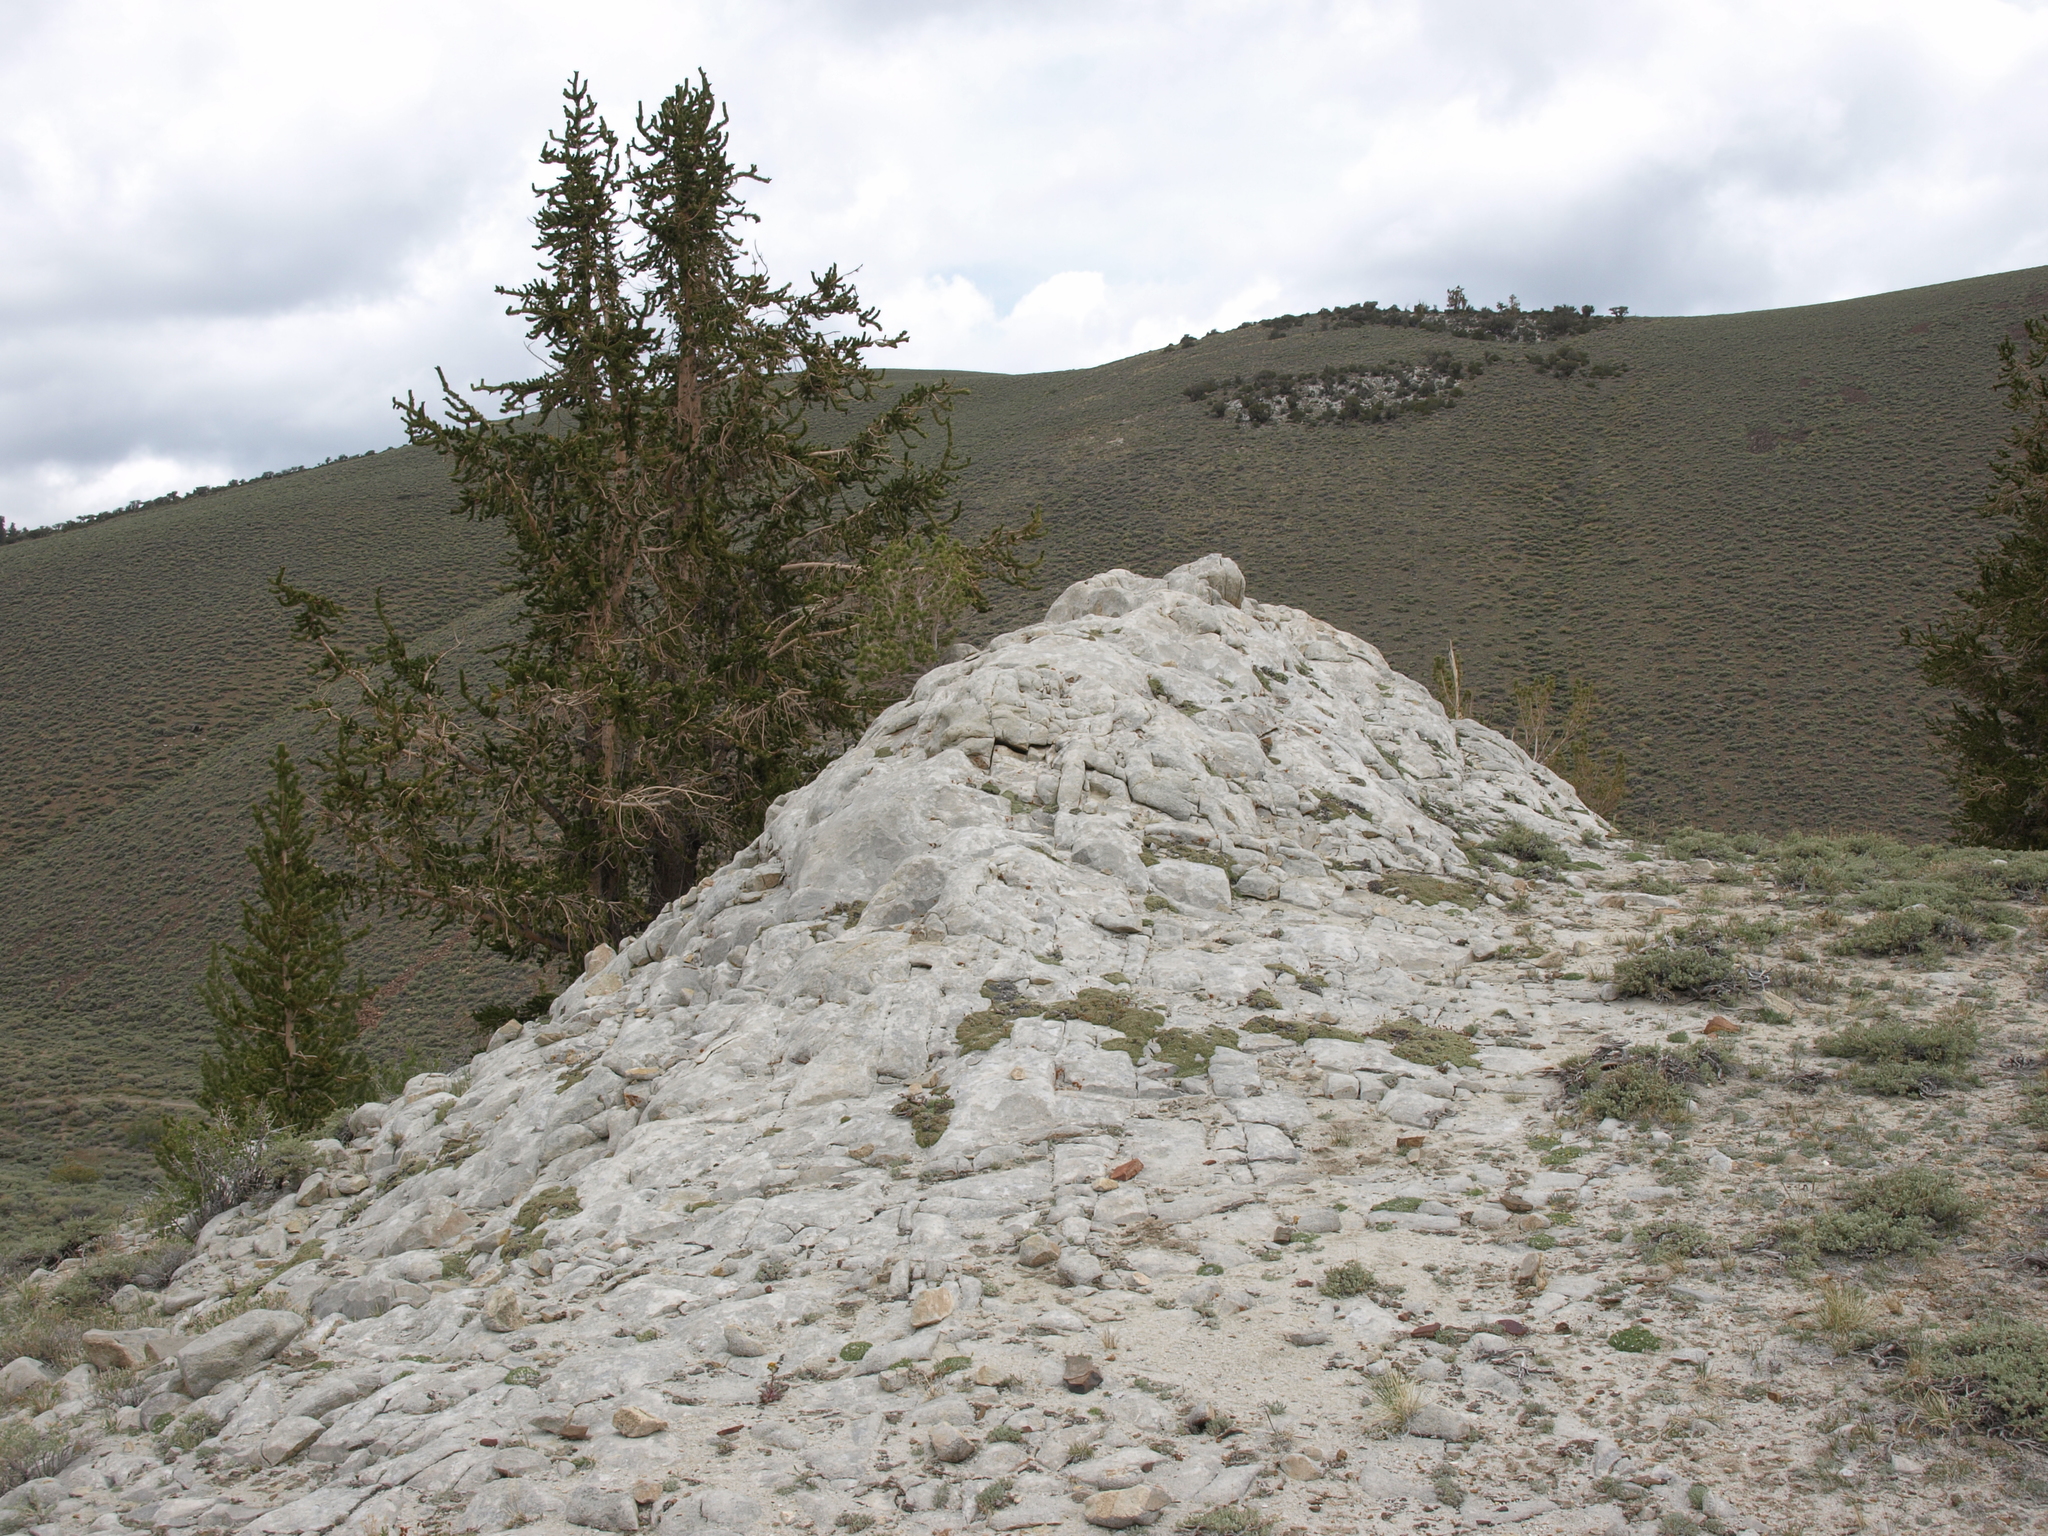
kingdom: Plantae
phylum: Tracheophyta
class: Pinopsida
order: Pinales
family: Pinaceae
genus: Pinus
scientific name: Pinus longaeva
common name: Intermountain bristlecone pine
